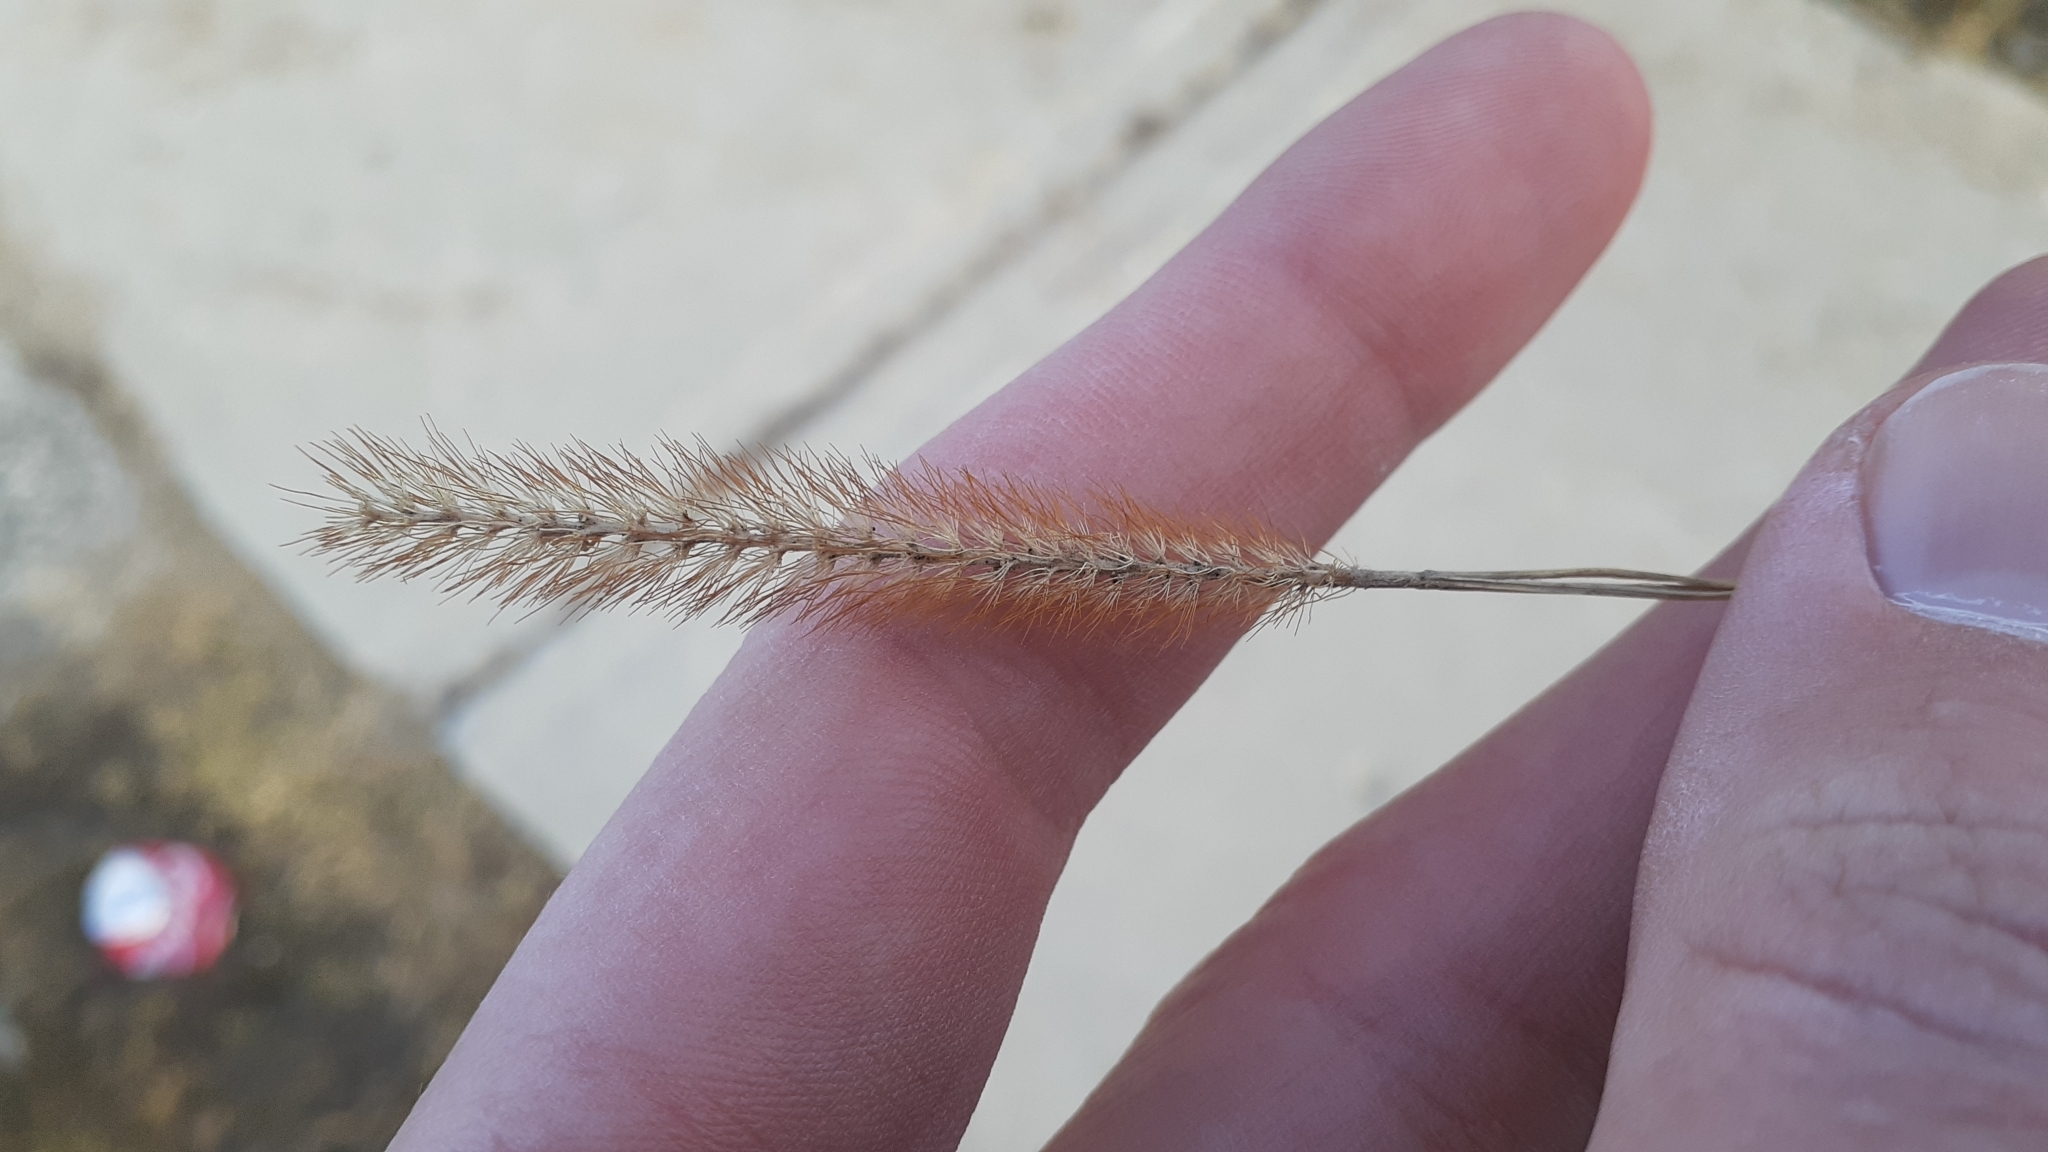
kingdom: Plantae
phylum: Tracheophyta
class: Liliopsida
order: Poales
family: Poaceae
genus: Setaria
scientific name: Setaria pumila
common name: Yellow bristle-grass
